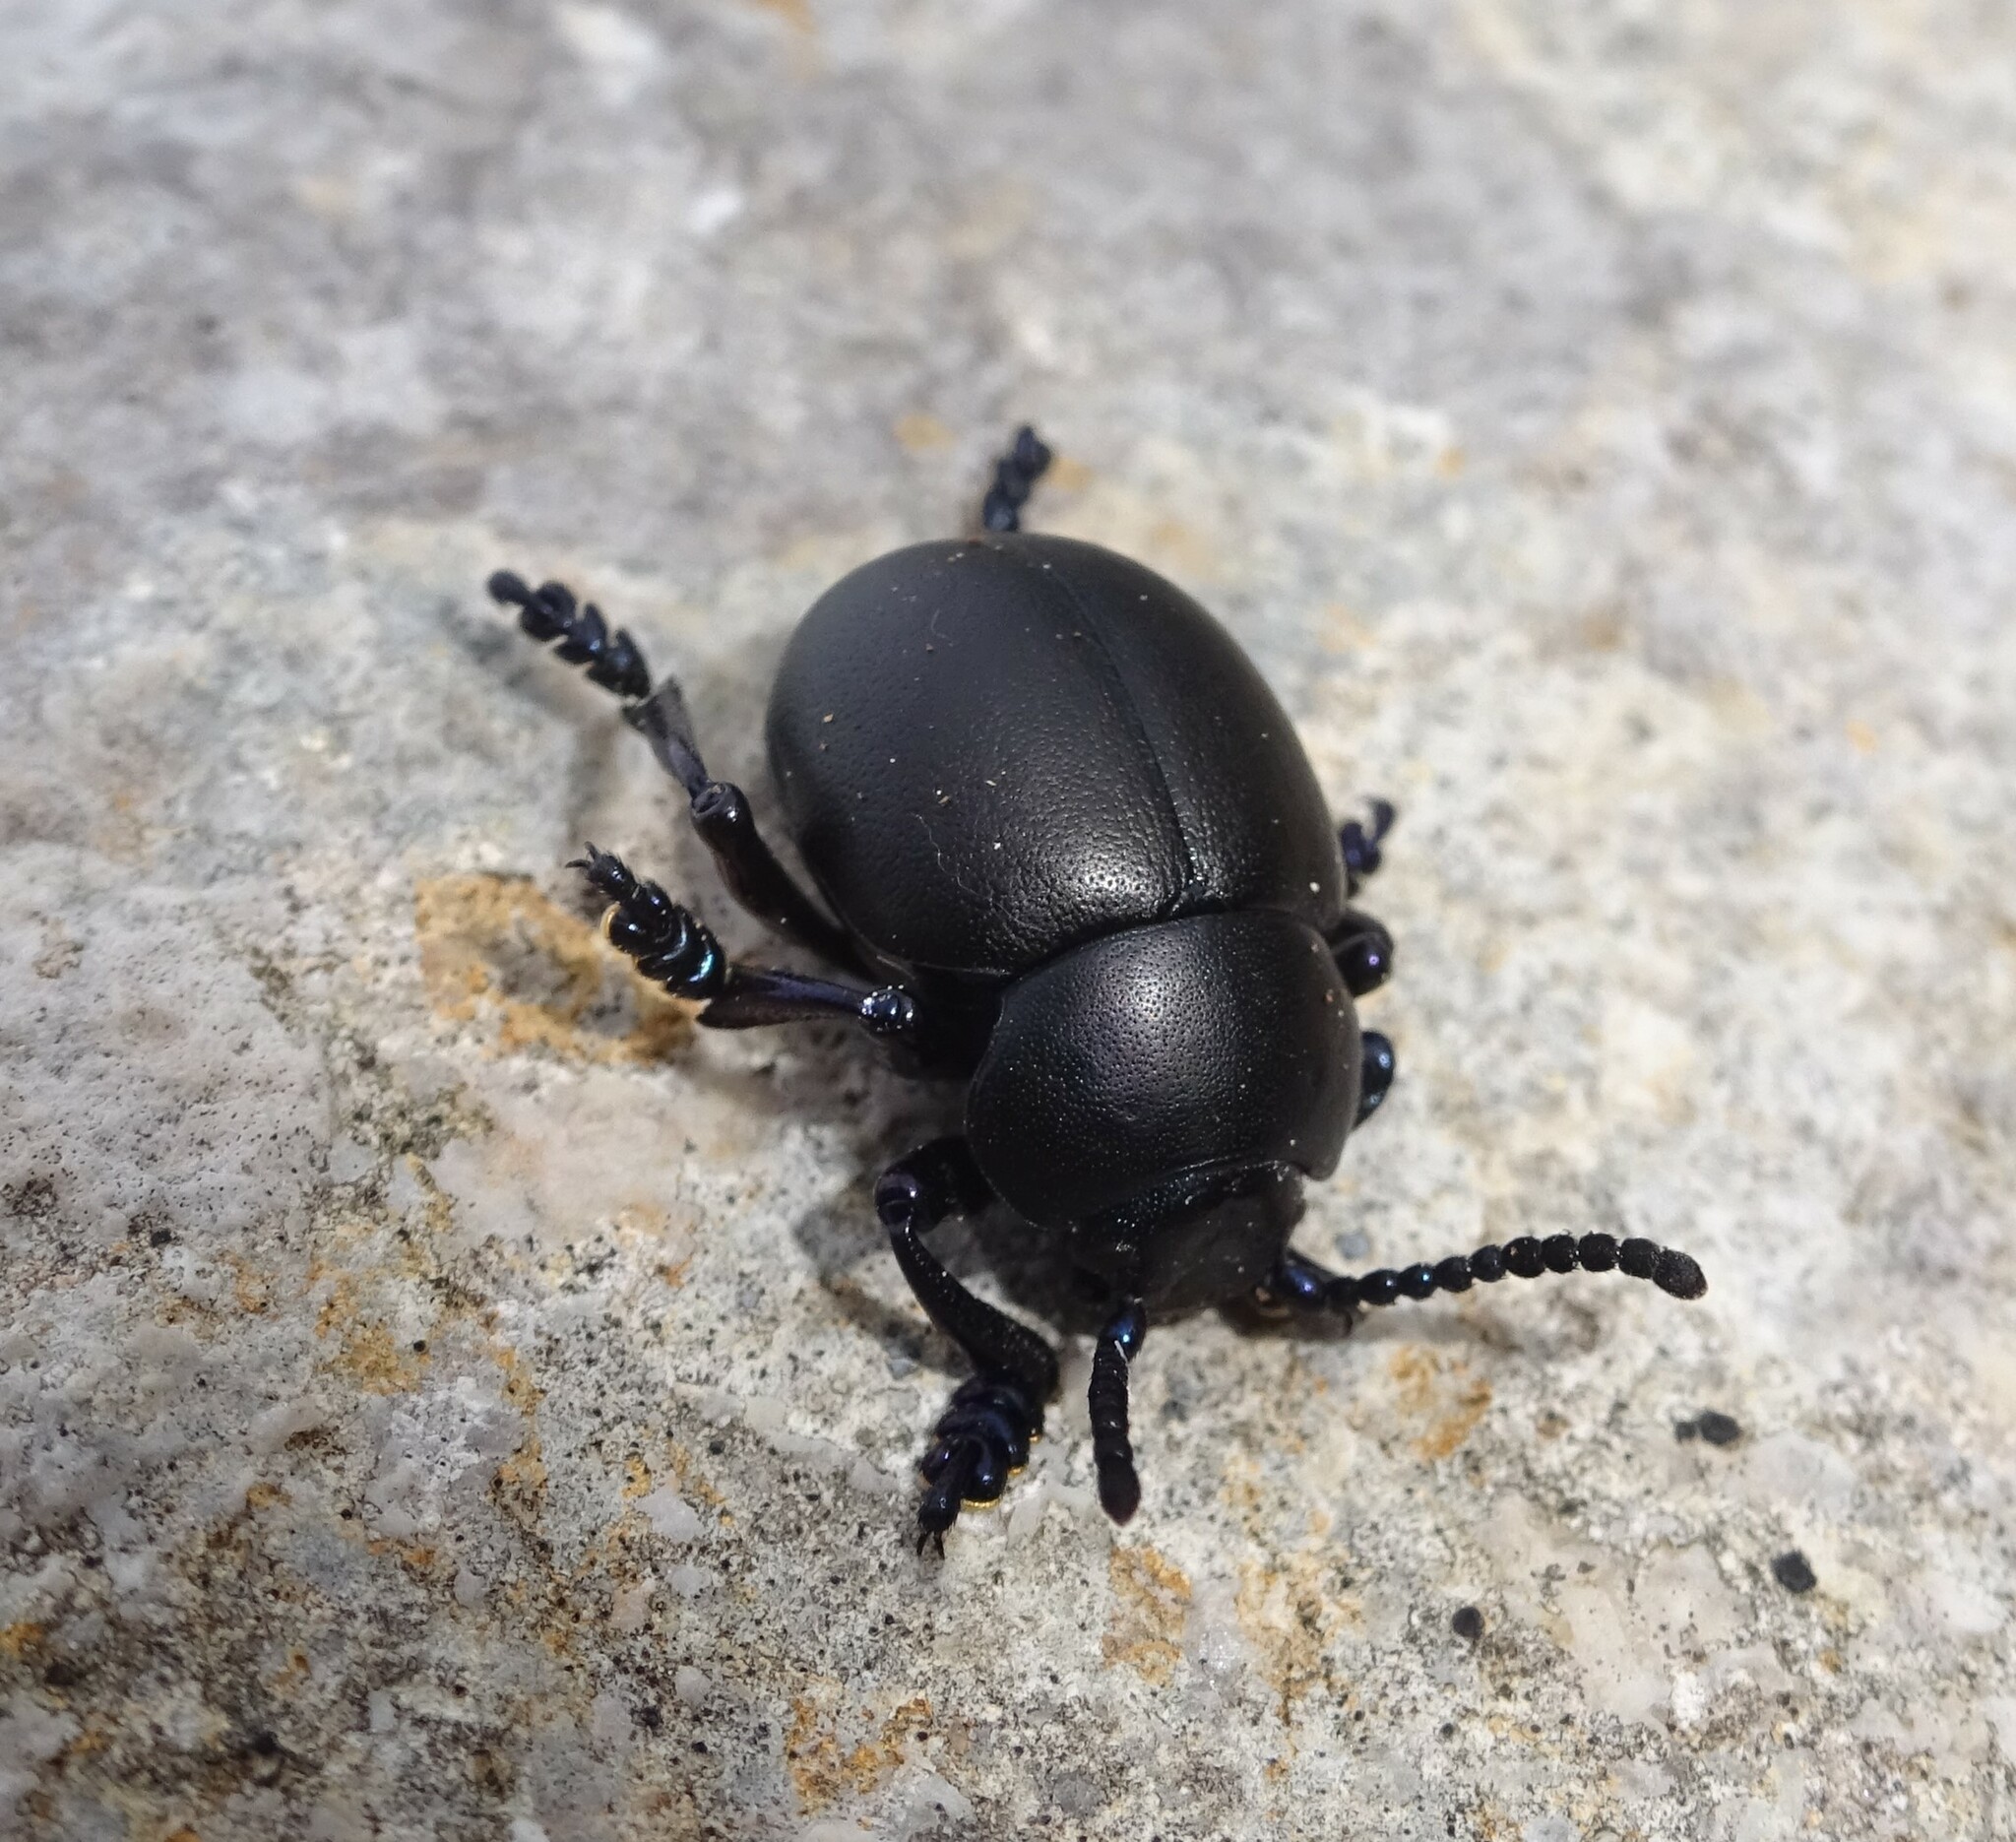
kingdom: Animalia
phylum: Arthropoda
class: Insecta
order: Coleoptera
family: Chrysomelidae
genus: Timarcha
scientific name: Timarcha tenebricosa
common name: Bloody-nosed beetle
